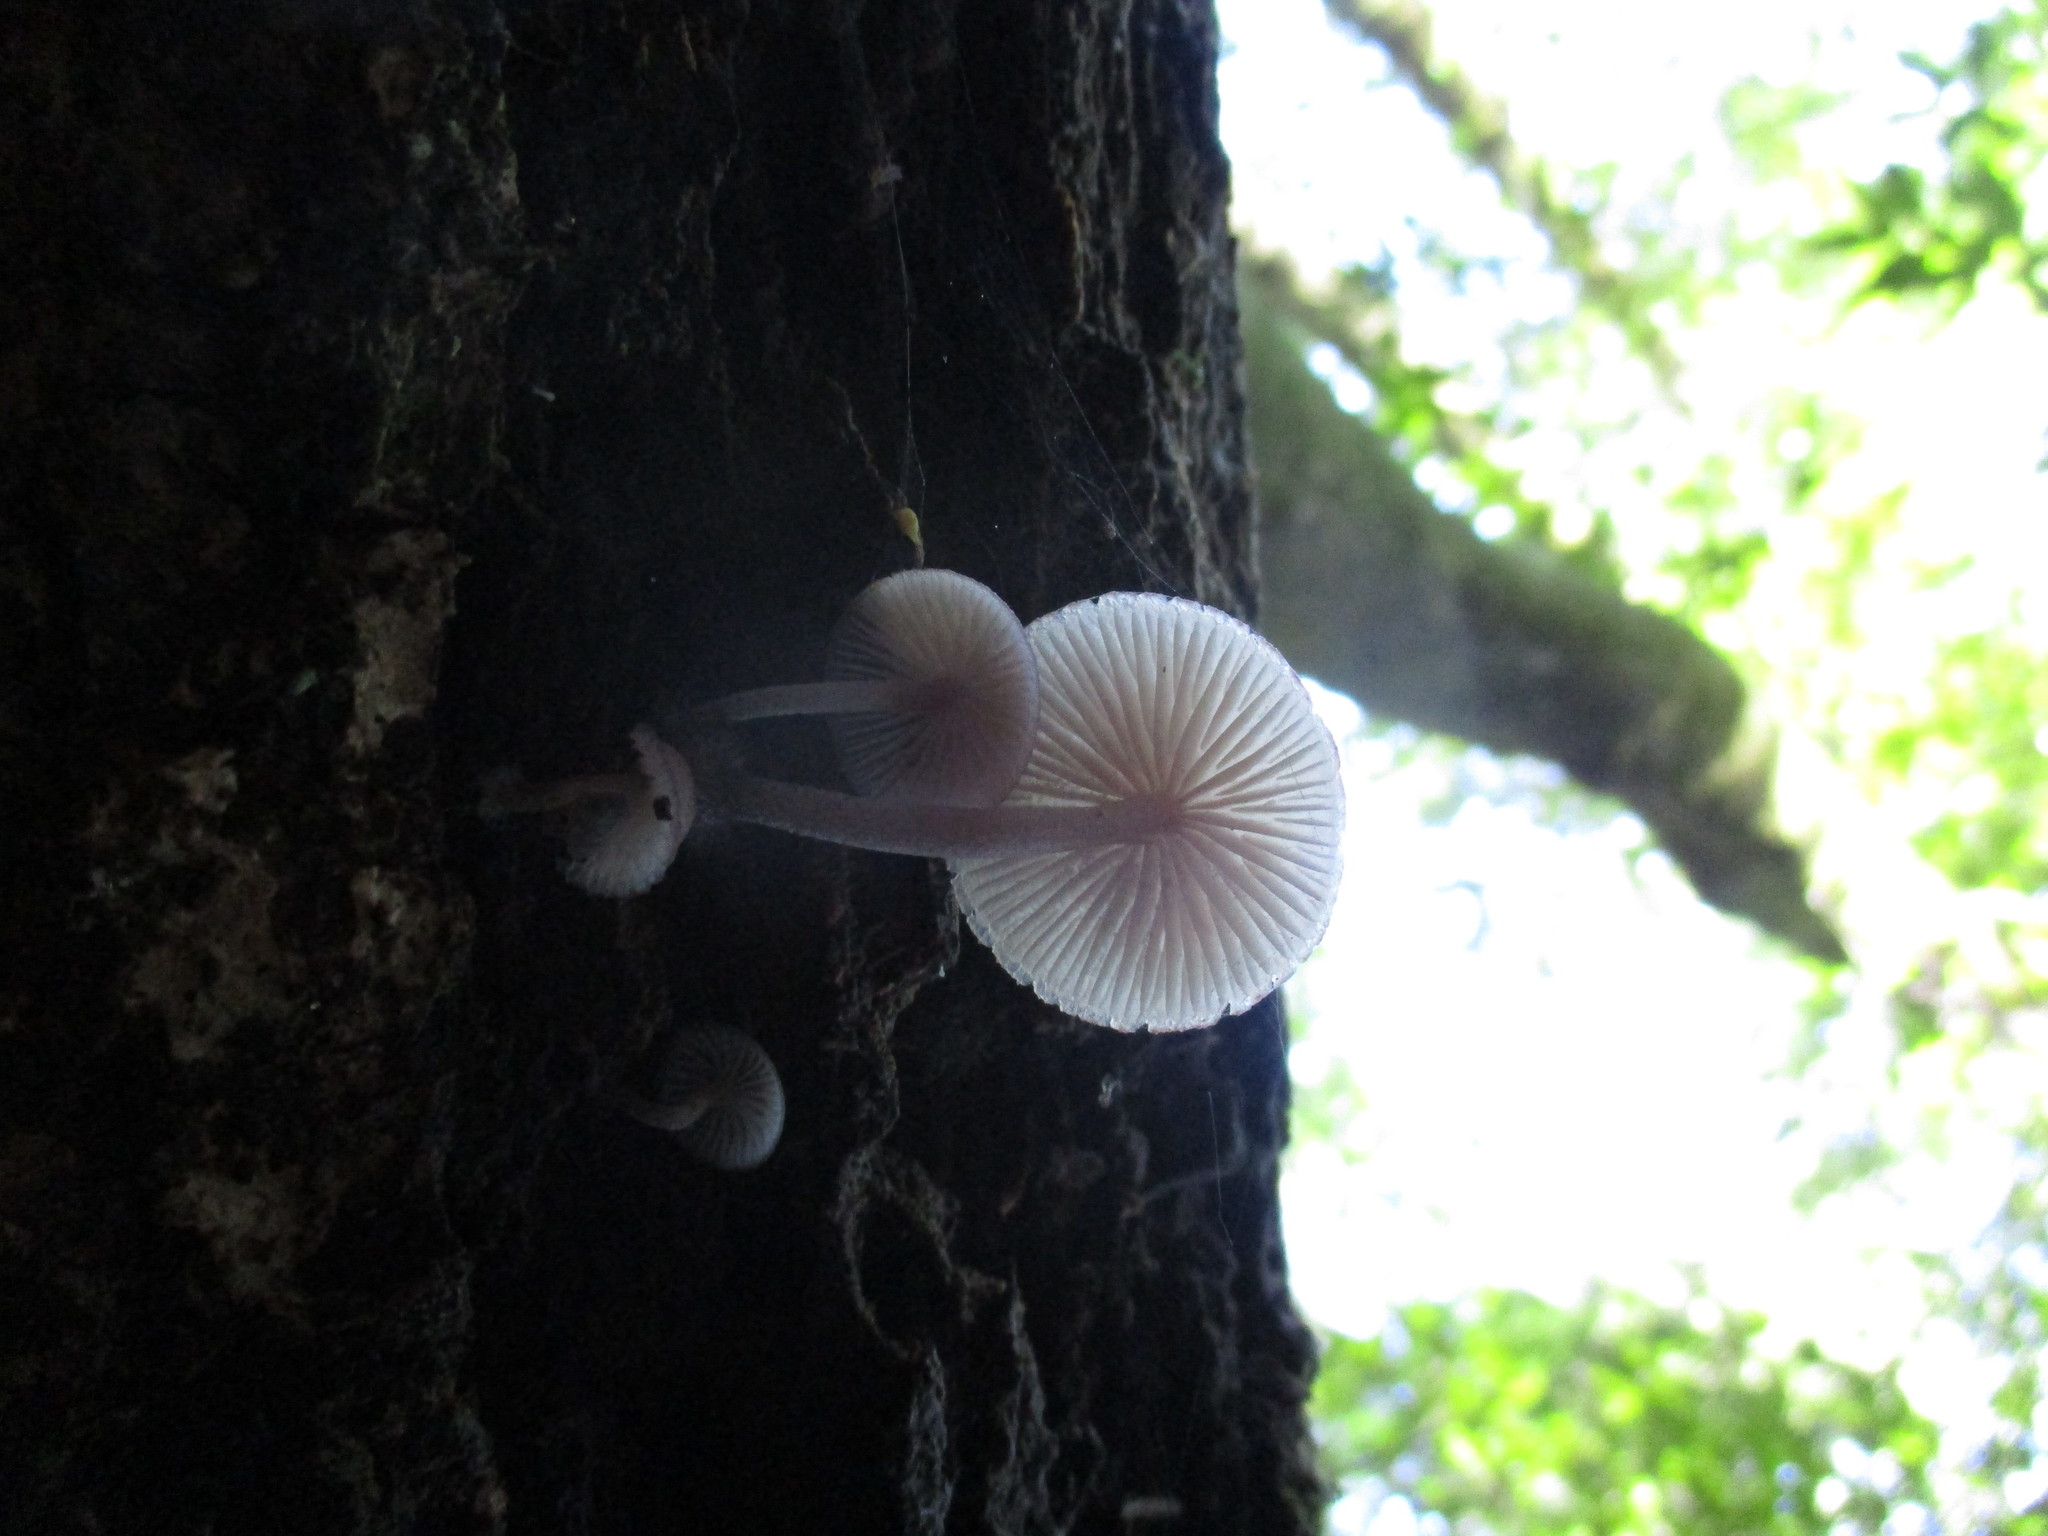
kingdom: Fungi
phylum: Basidiomycota
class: Agaricomycetes
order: Agaricales
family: Mycenaceae
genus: Mycena
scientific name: Mycena haematopus
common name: Burgundydrop bonnet
